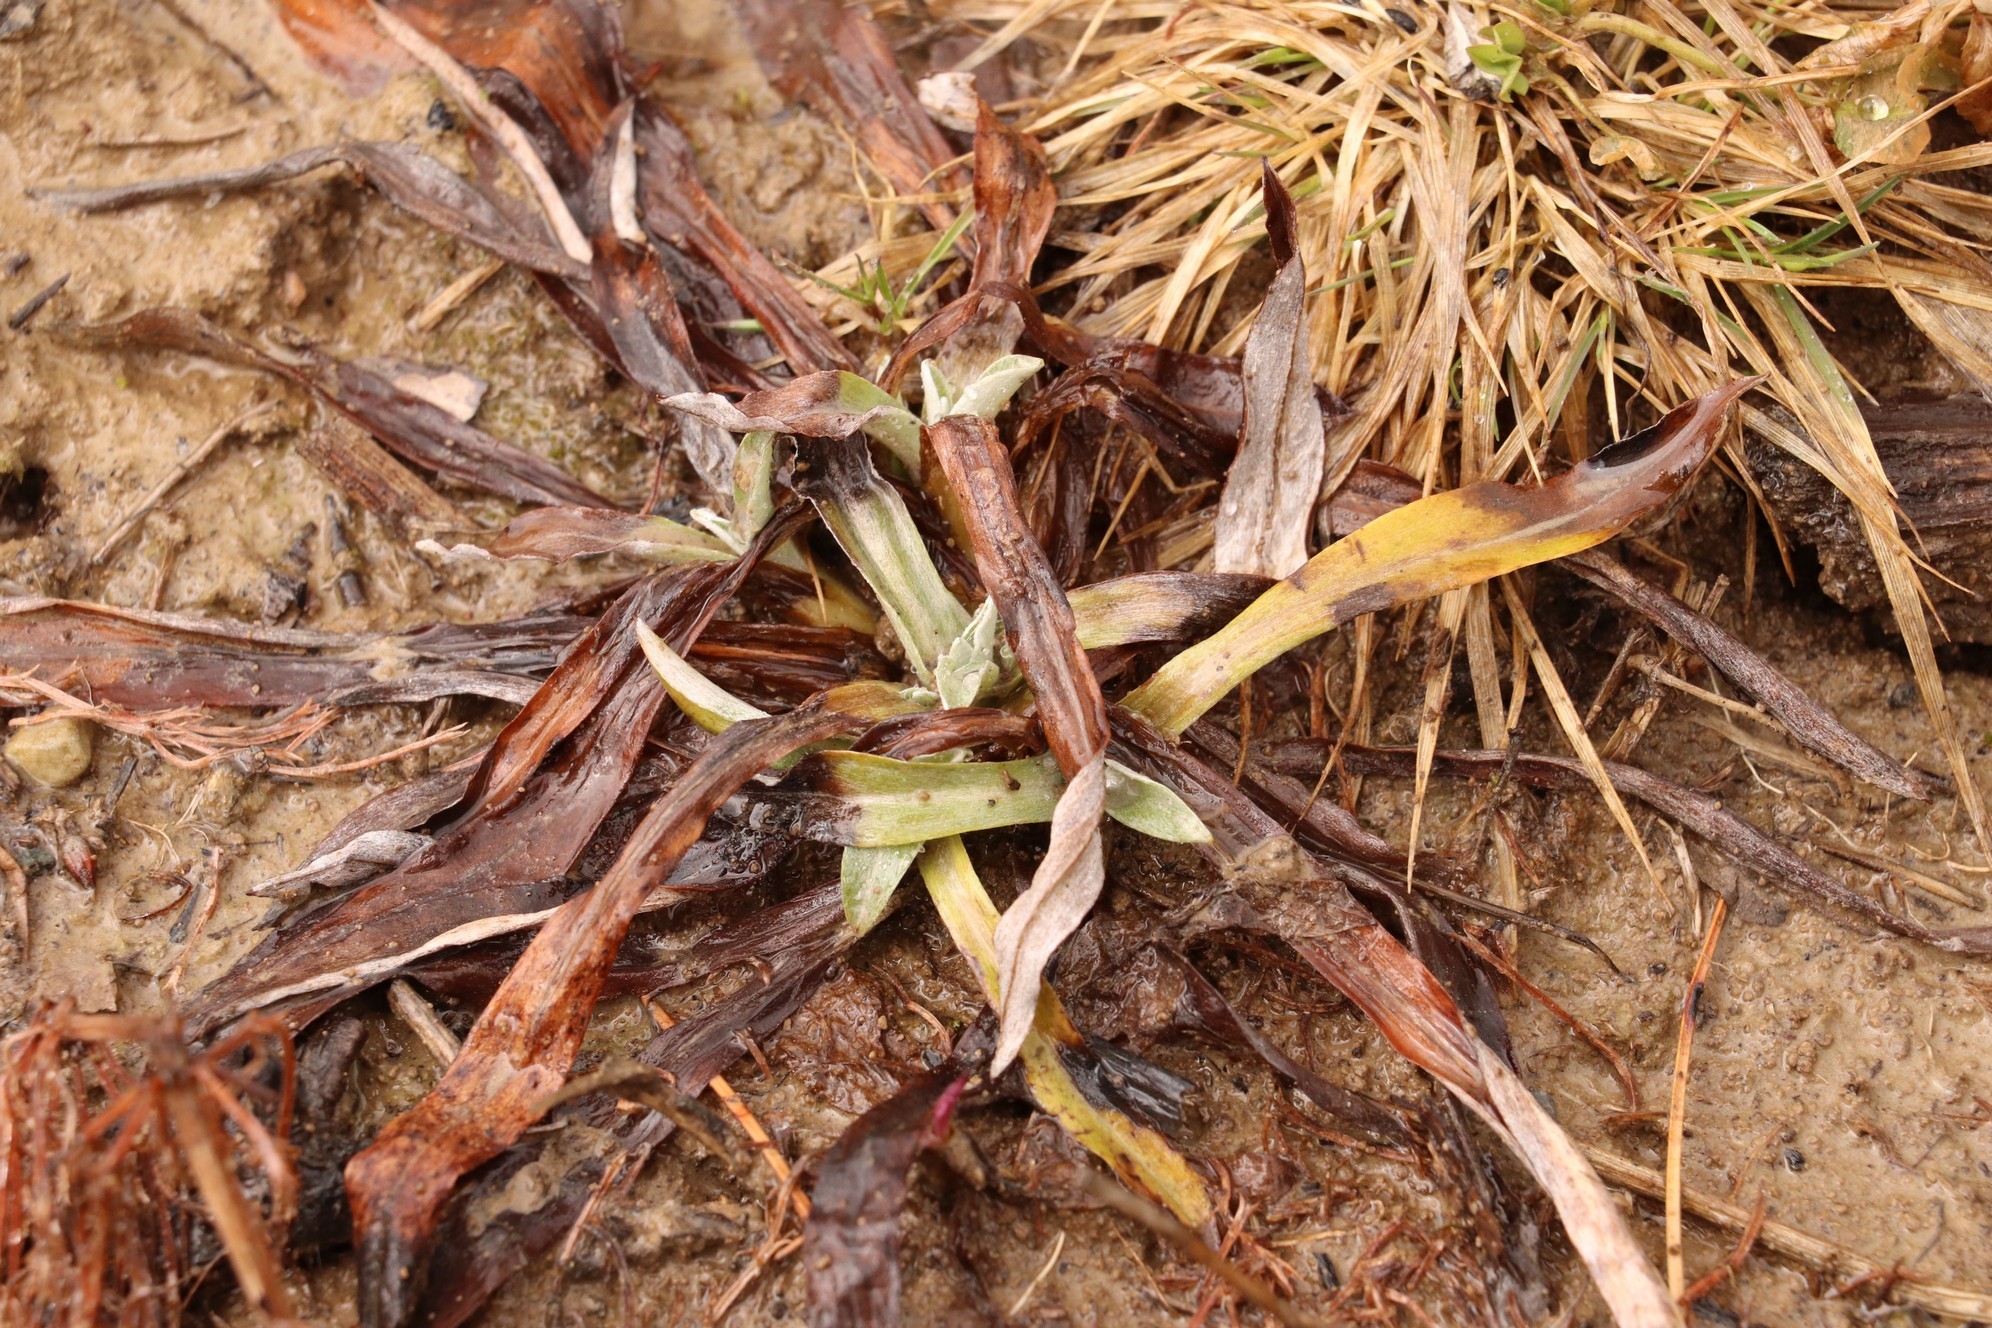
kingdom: Plantae
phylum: Tracheophyta
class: Magnoliopsida
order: Asterales
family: Asteraceae
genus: Omalotheca
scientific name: Omalotheca sylvatica
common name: Heath cudweed
